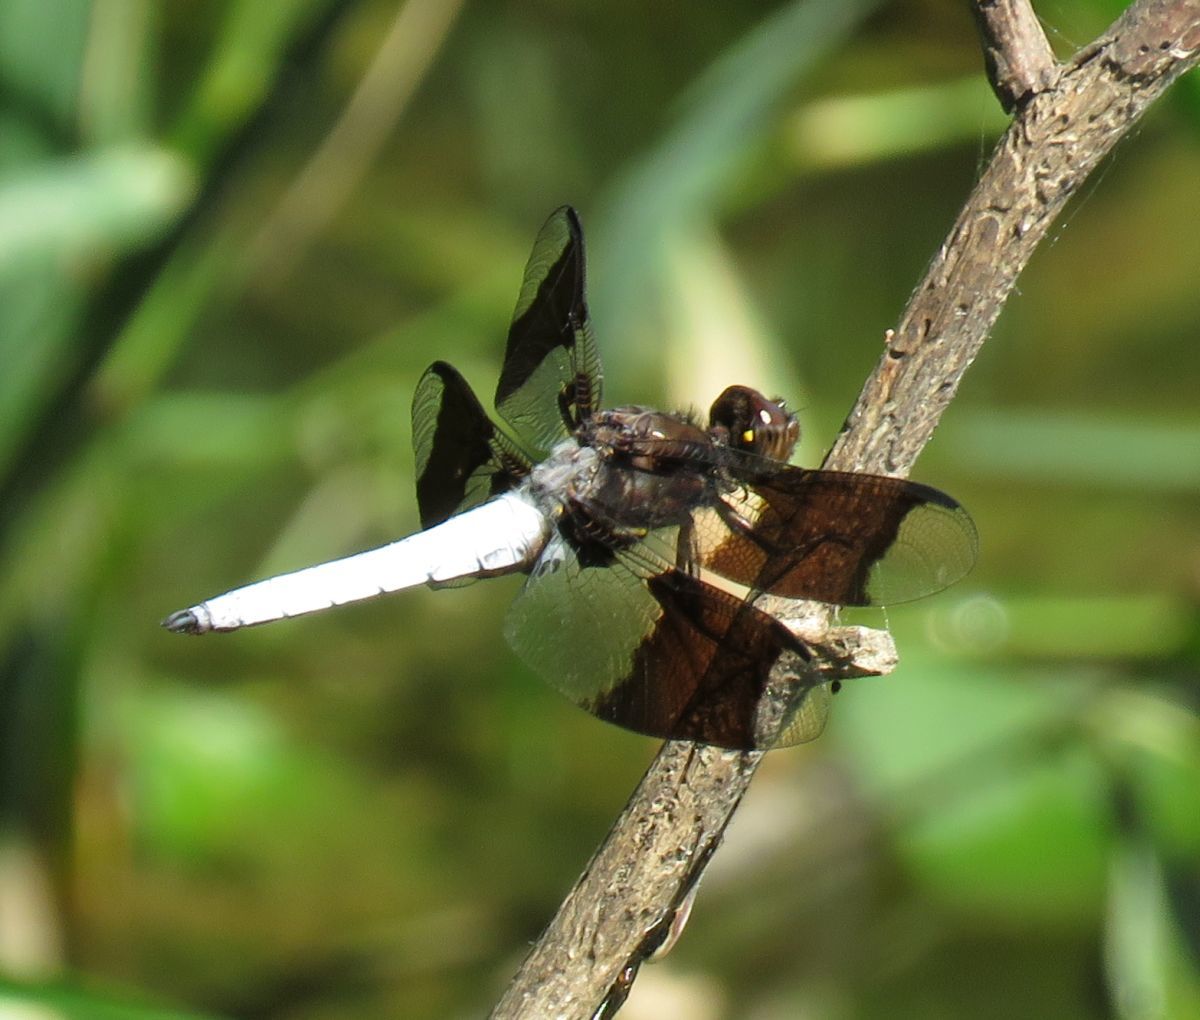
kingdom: Animalia
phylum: Arthropoda
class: Insecta
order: Odonata
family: Libellulidae
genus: Plathemis
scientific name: Plathemis lydia
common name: Common whitetail
